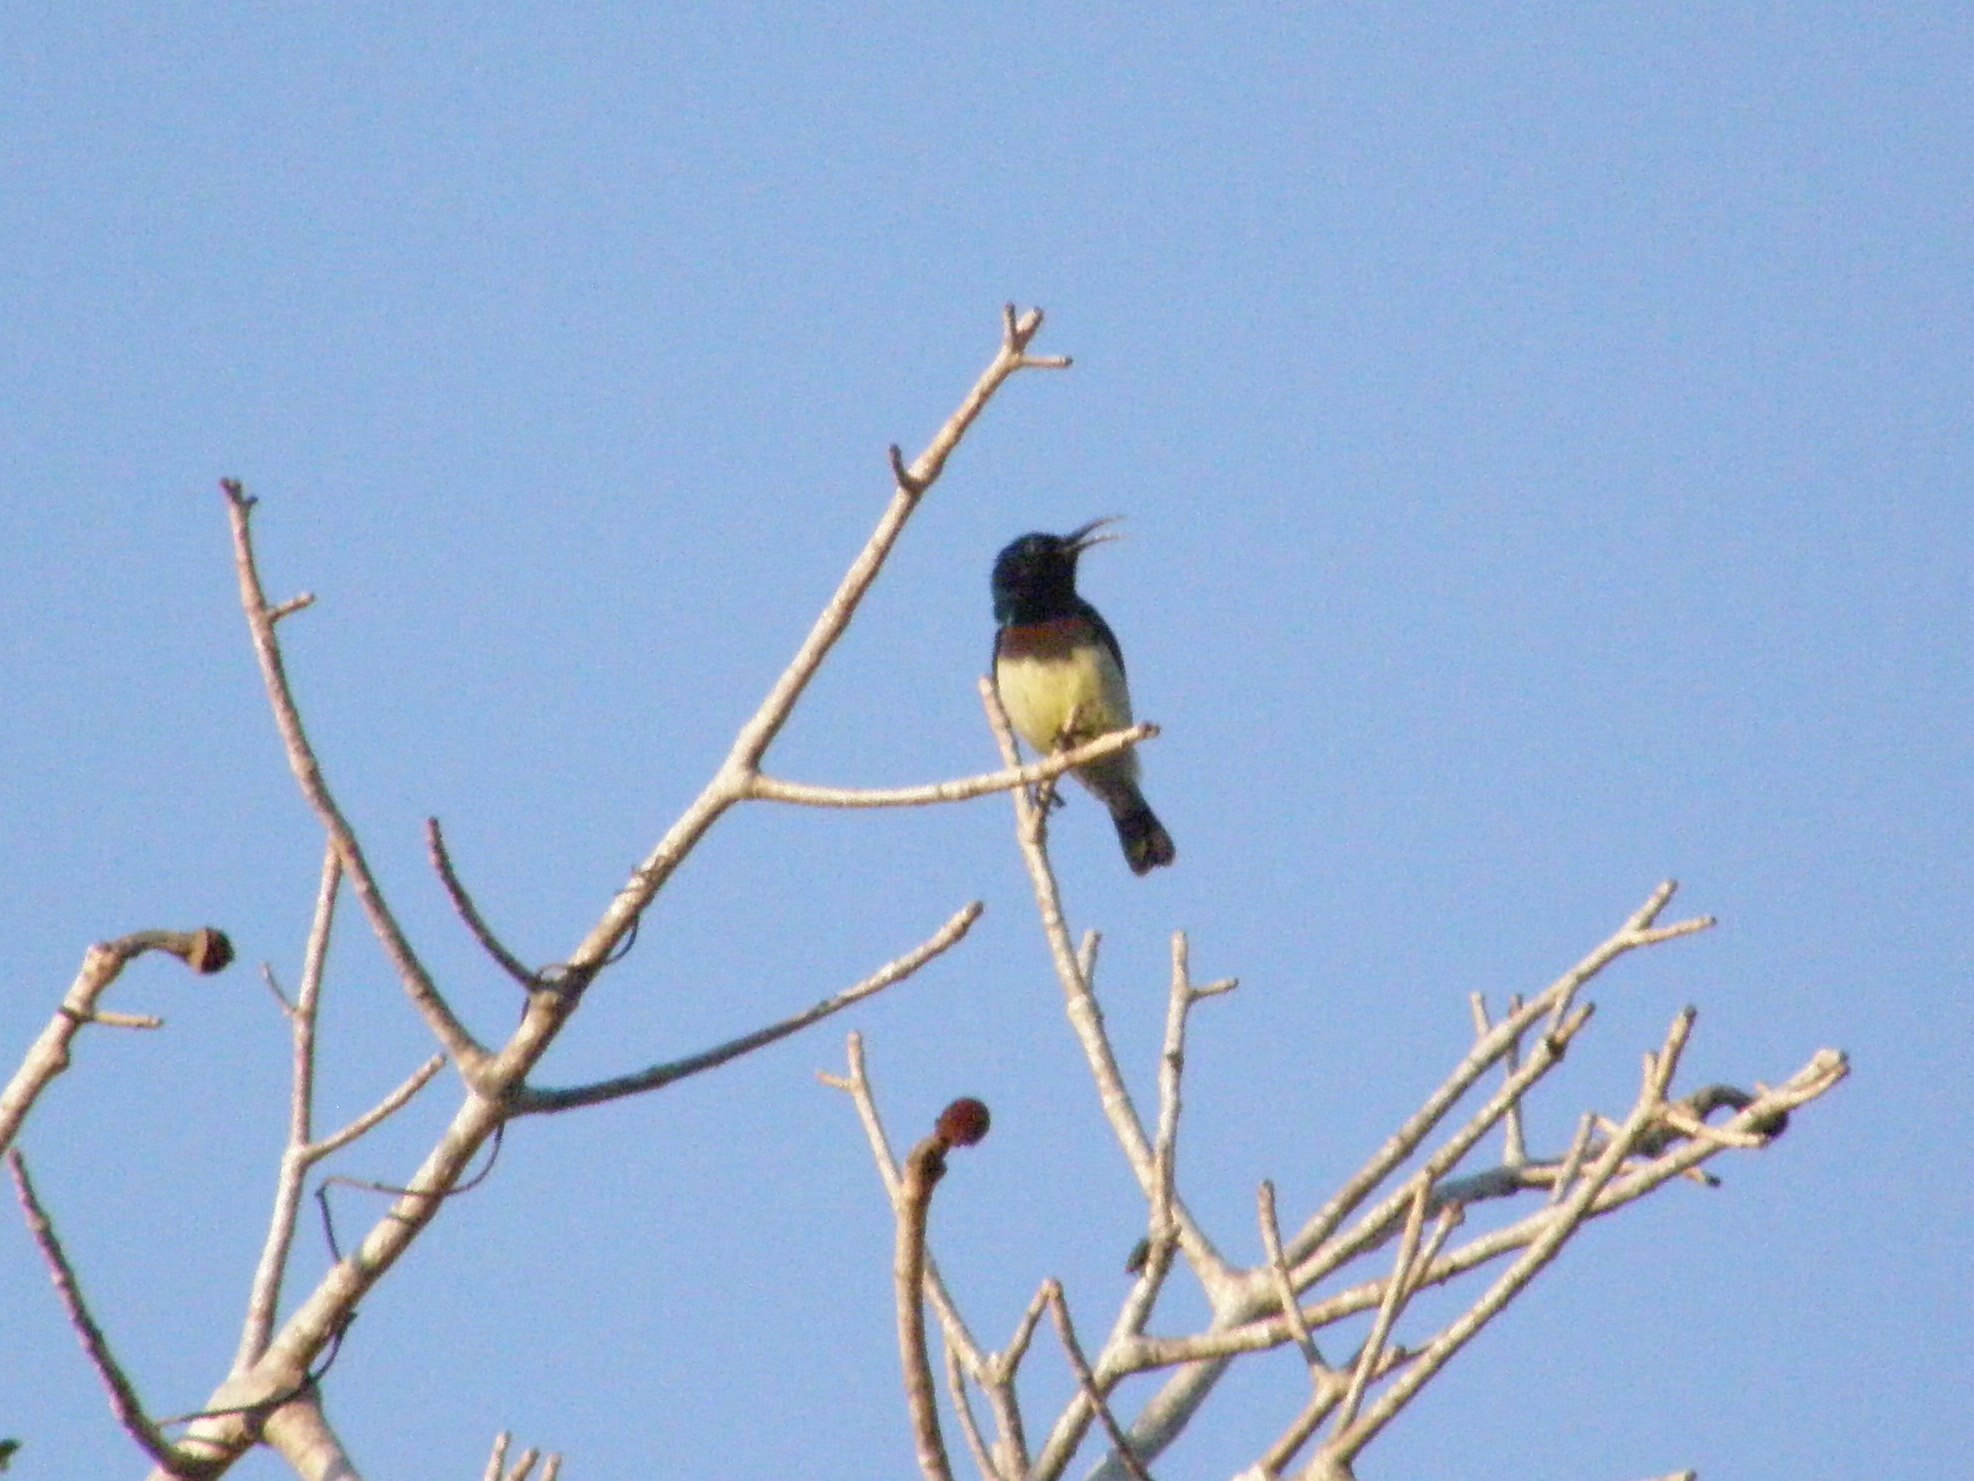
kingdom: Animalia
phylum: Chordata
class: Aves
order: Passeriformes
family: Nectariniidae
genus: Cinnyris
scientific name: Cinnyris sovimanga
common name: Souimanga sunbird
